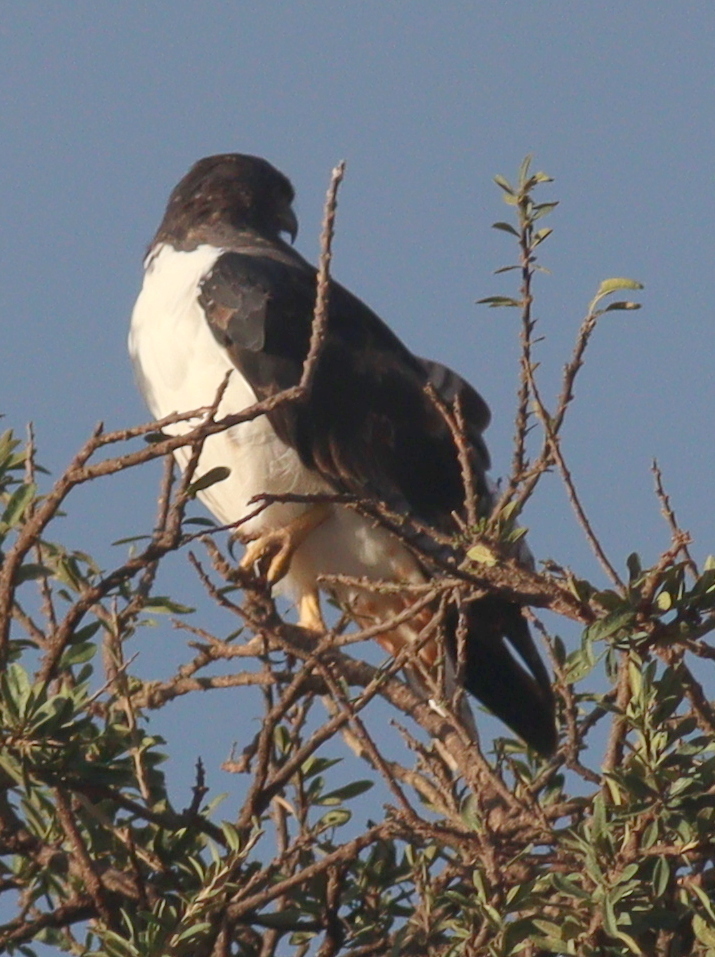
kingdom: Animalia
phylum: Chordata
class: Aves
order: Accipitriformes
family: Accipitridae
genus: Buteo
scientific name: Buteo augur
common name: Augur buzzard
